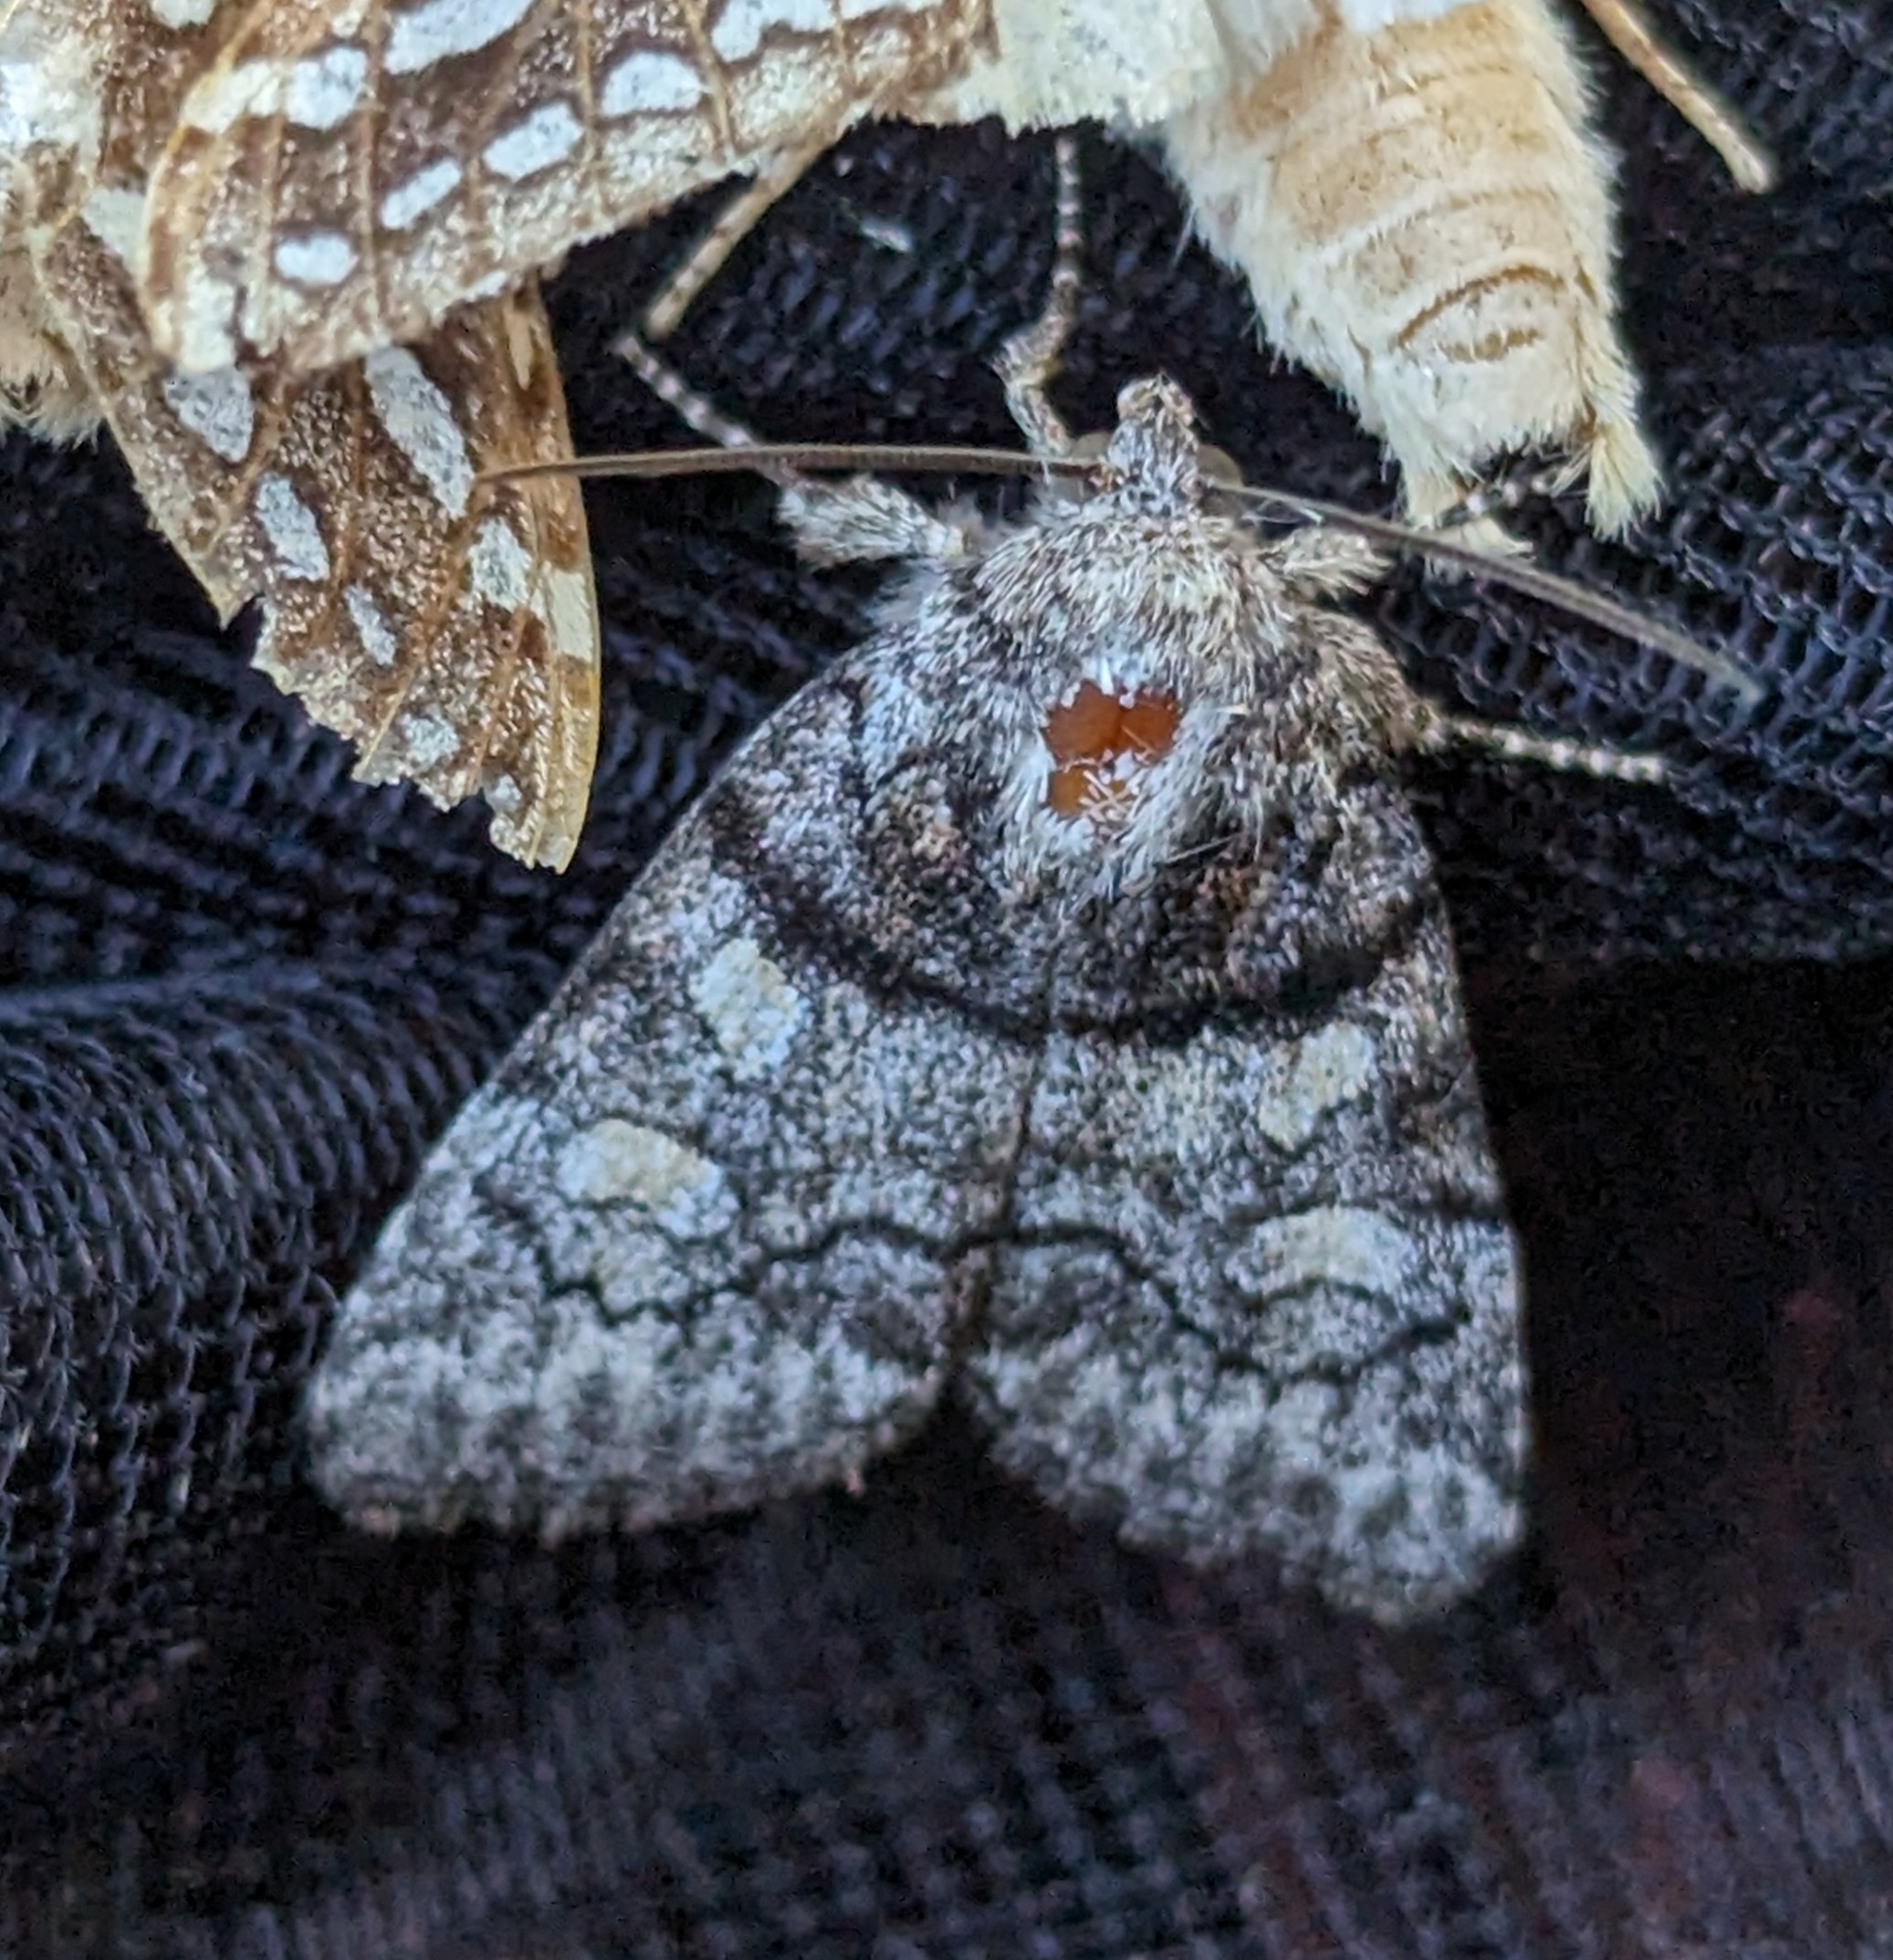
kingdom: Animalia
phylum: Arthropoda
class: Insecta
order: Lepidoptera
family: Noctuidae
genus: Cosmia
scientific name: Cosmia praeacuta
